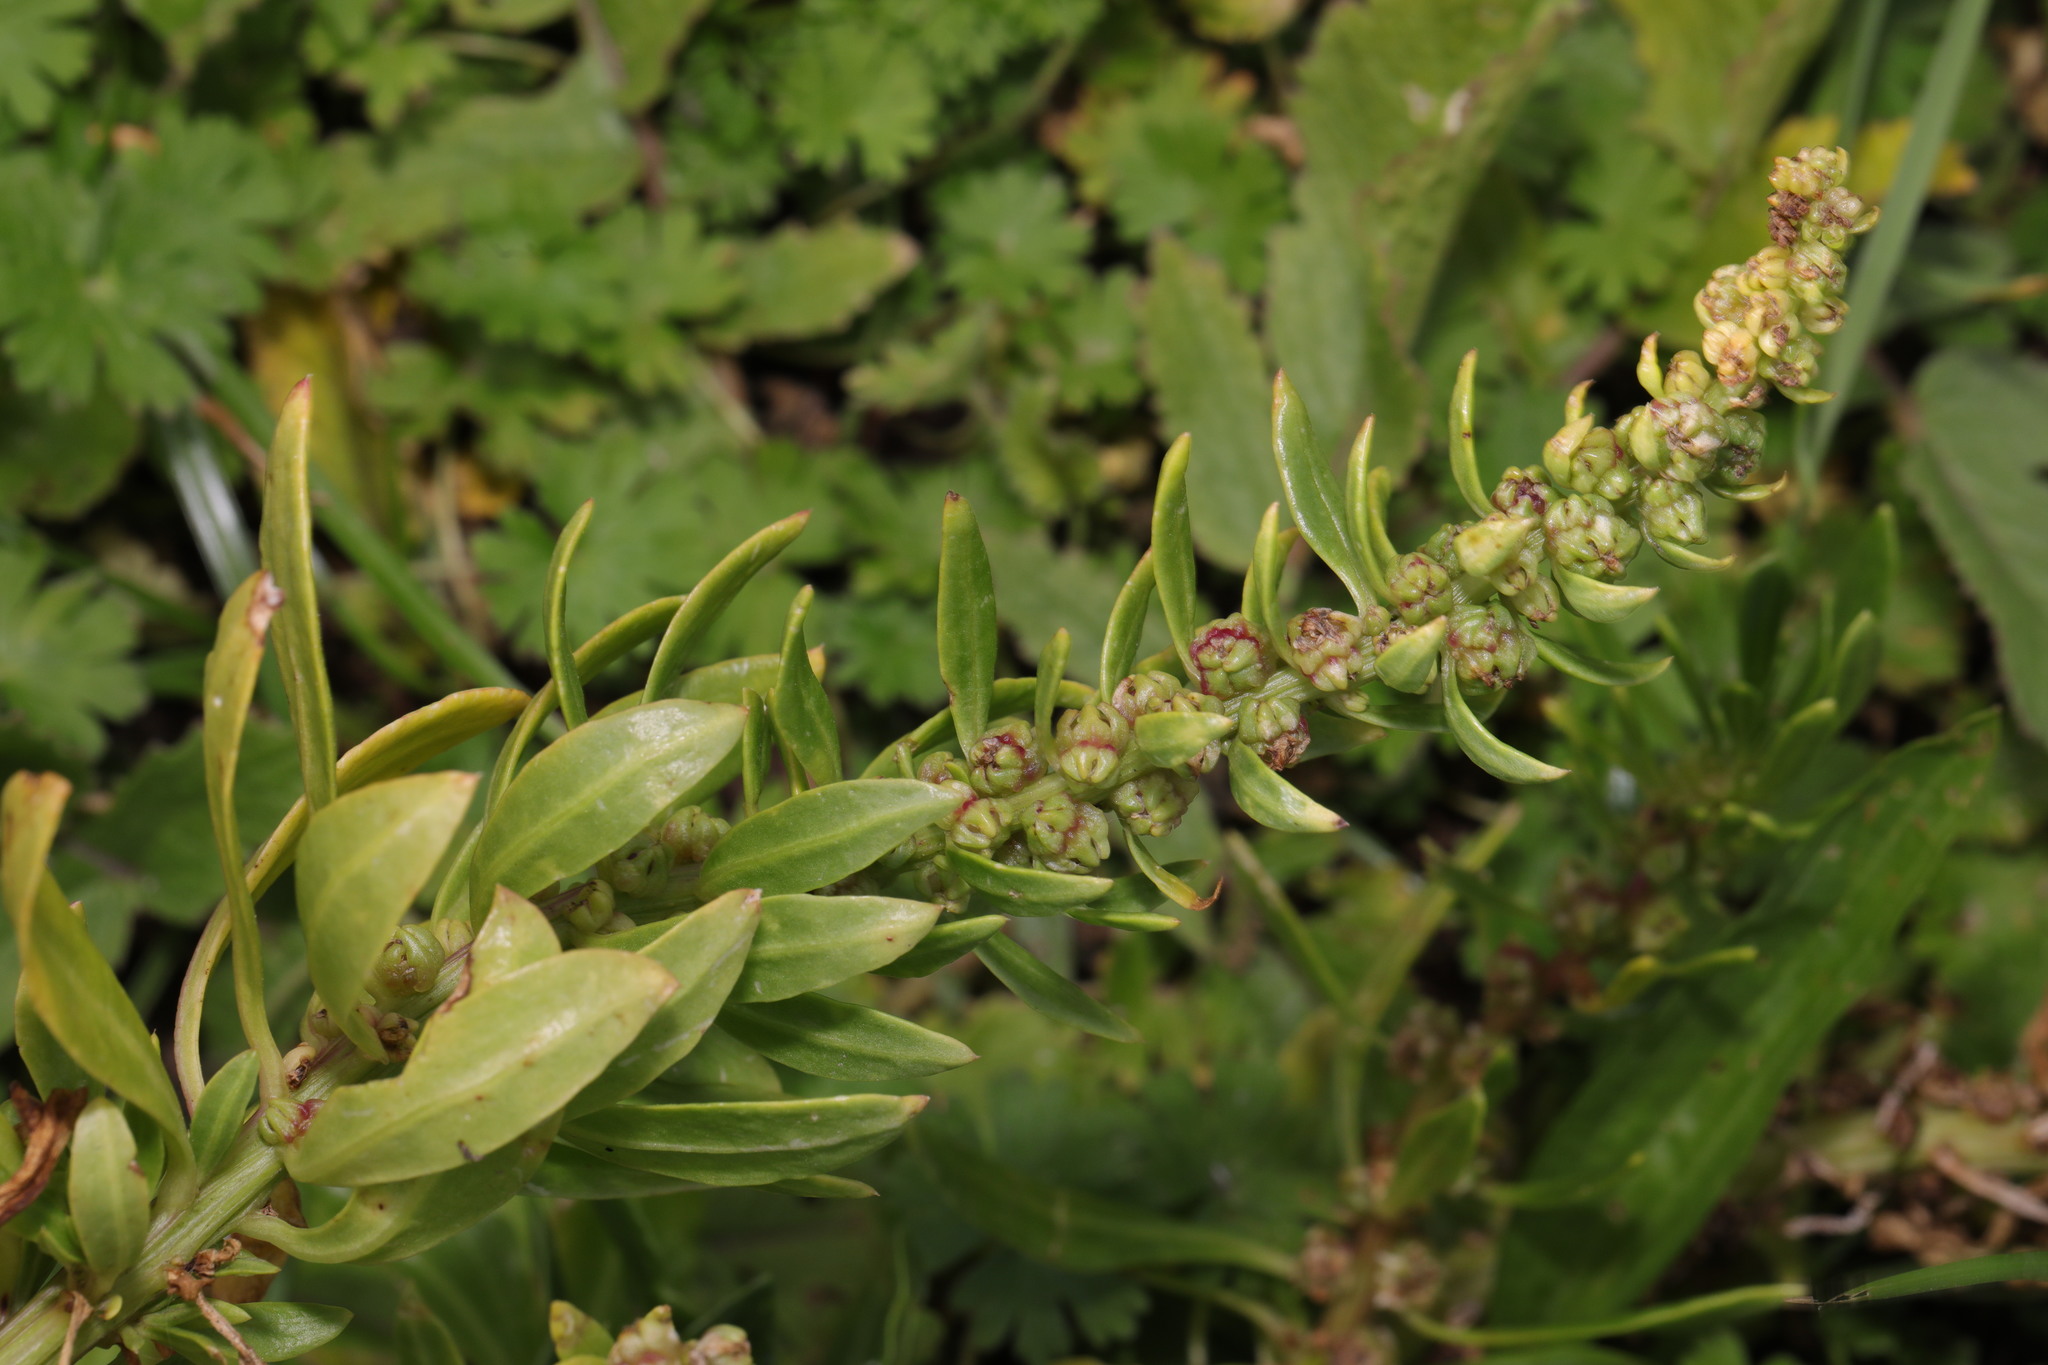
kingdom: Plantae
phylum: Tracheophyta
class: Magnoliopsida
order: Caryophyllales
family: Amaranthaceae
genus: Beta
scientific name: Beta vulgaris
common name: Beet
